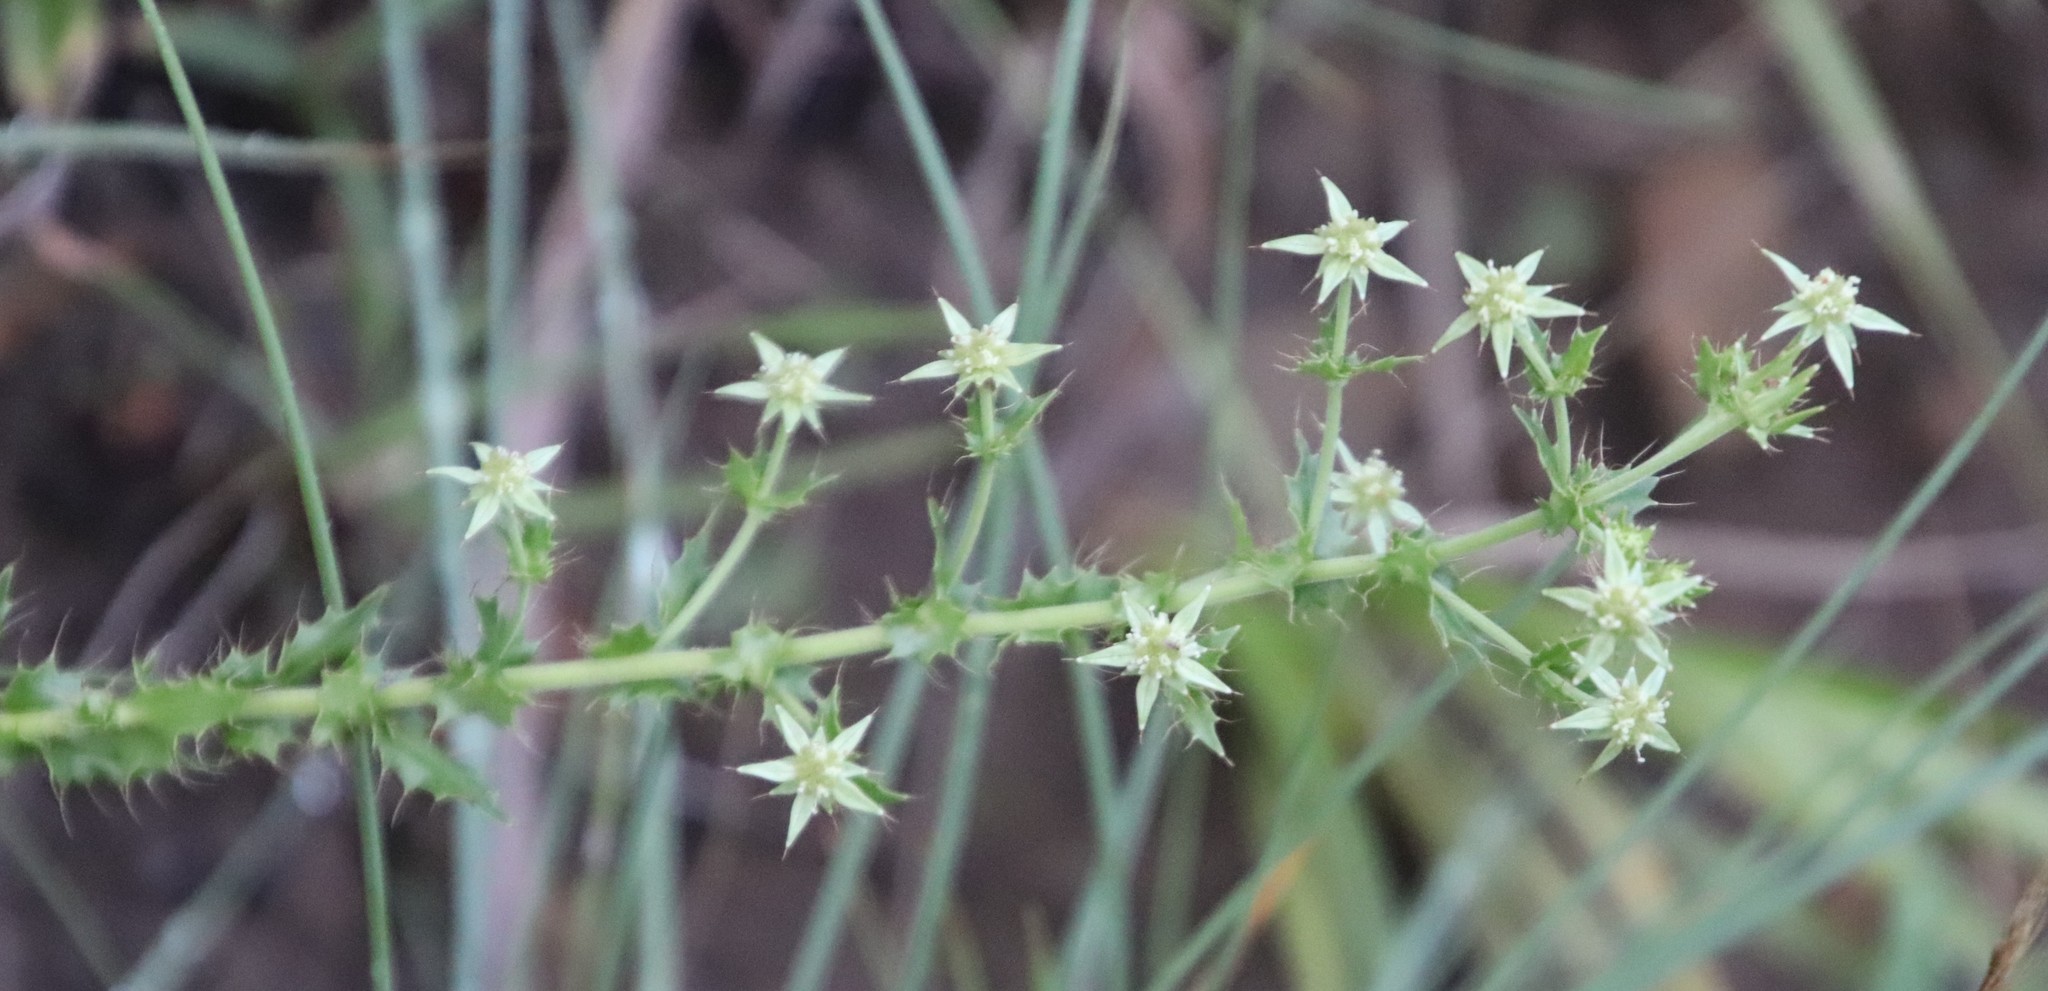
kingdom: Plantae
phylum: Tracheophyta
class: Magnoliopsida
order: Apiales
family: Apiaceae
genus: Alepidea
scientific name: Alepidea setifera
